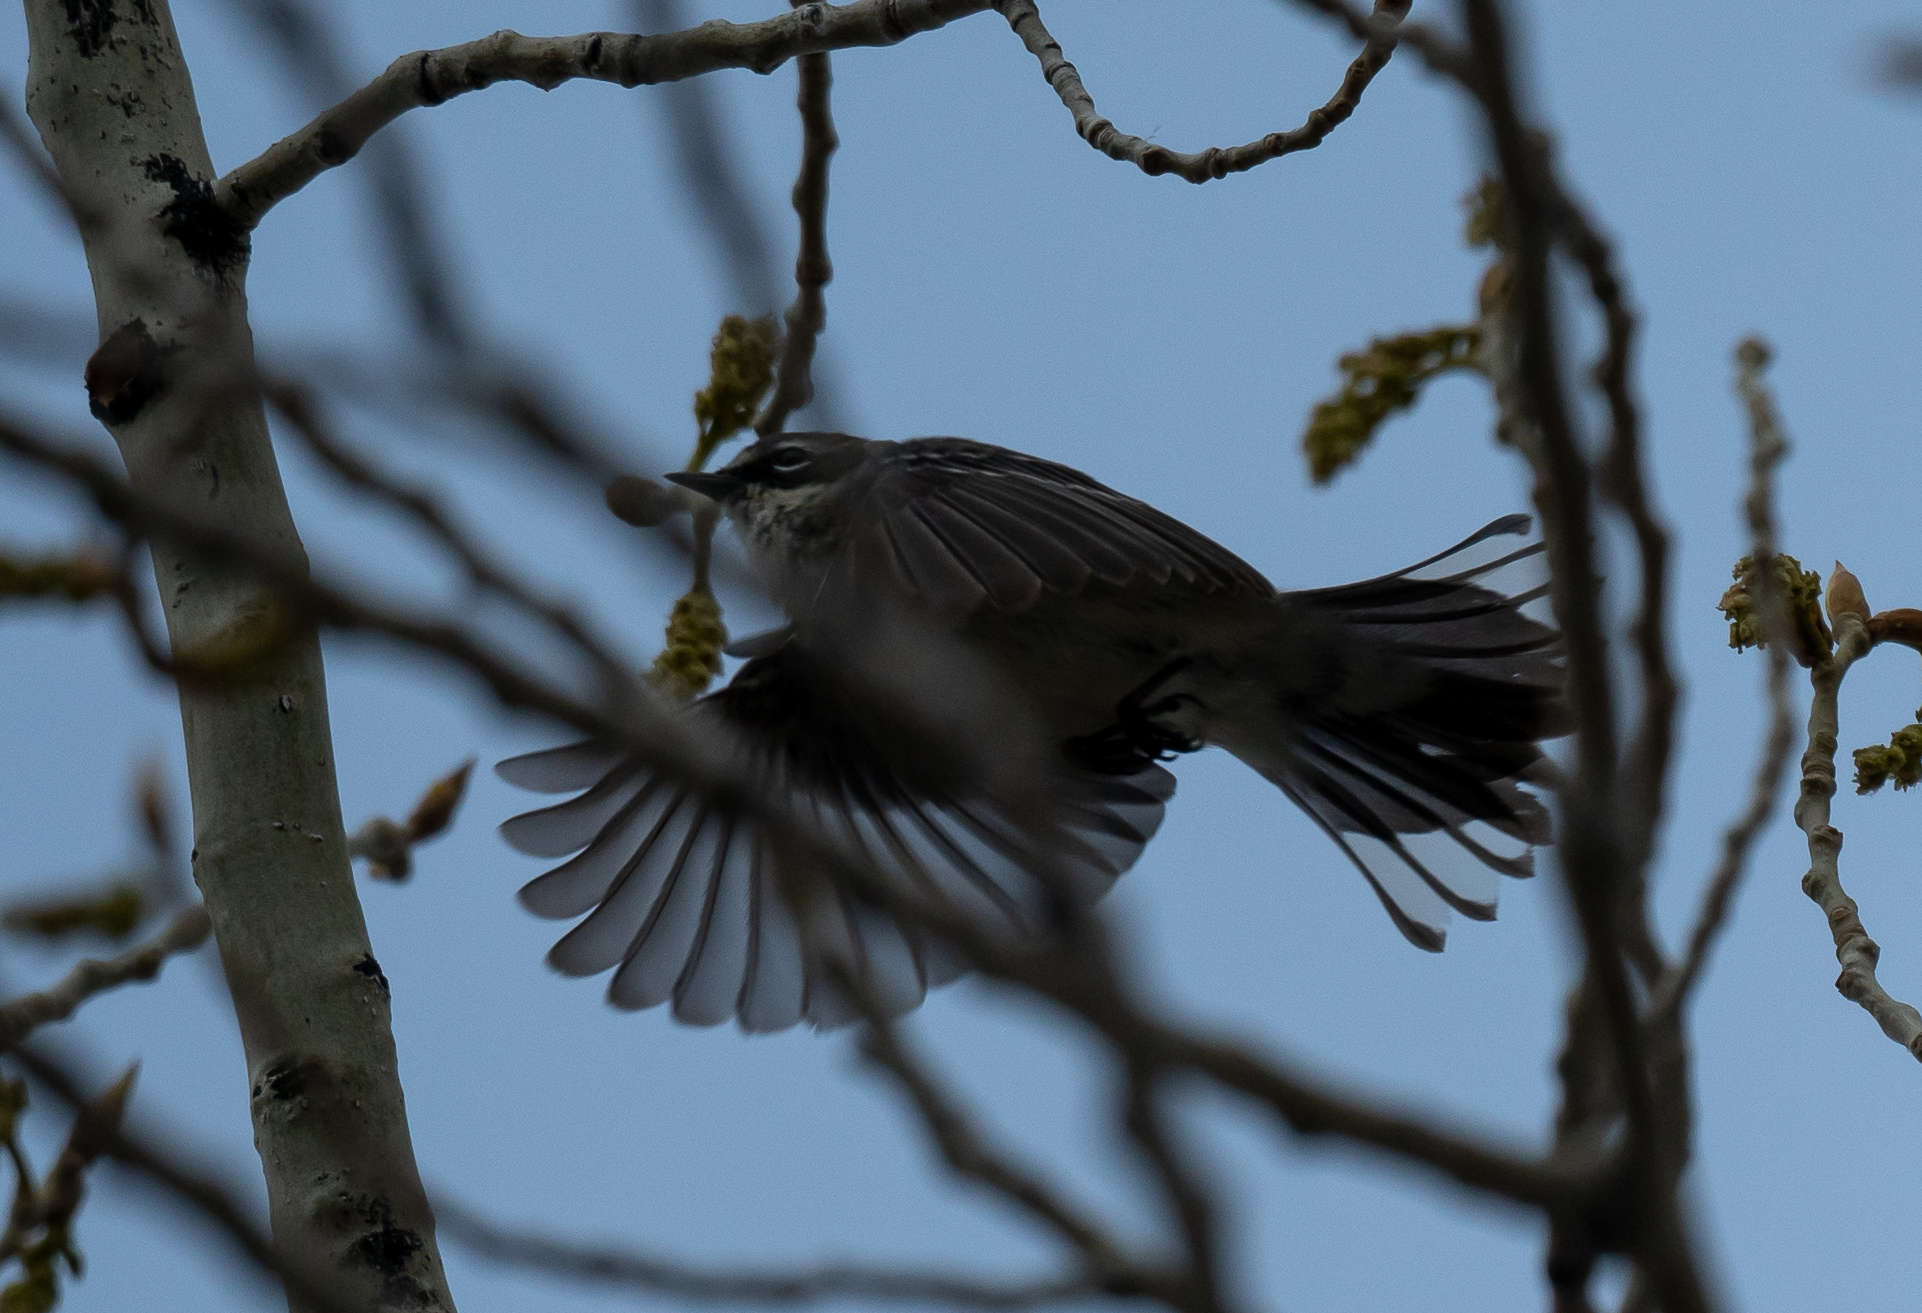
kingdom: Animalia
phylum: Chordata
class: Aves
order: Passeriformes
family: Parulidae
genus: Setophaga
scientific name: Setophaga coronata
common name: Myrtle warbler
